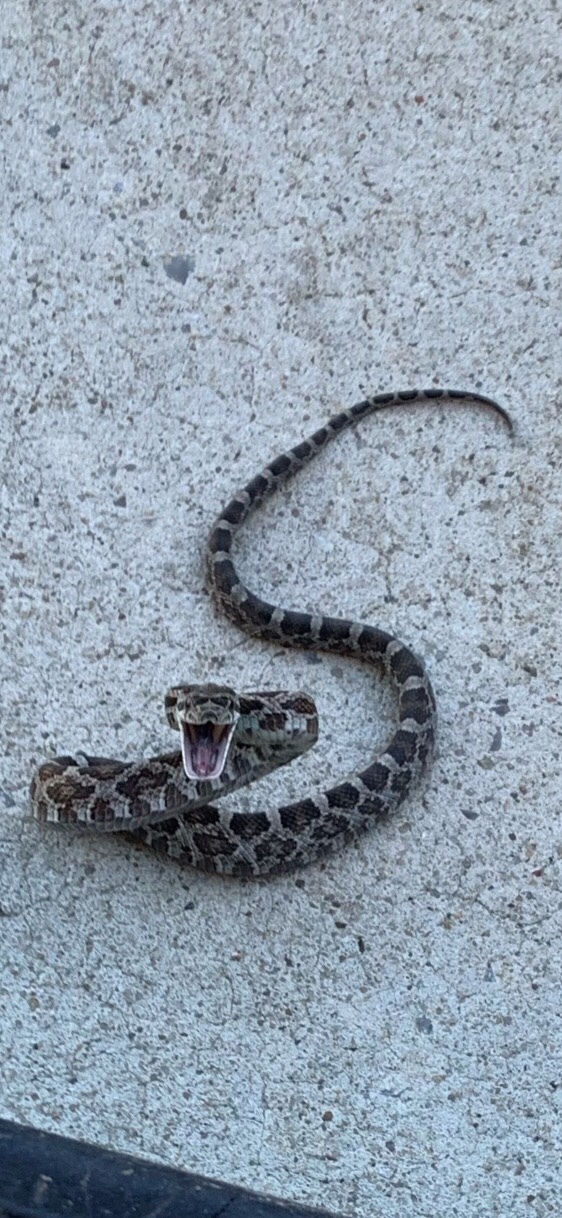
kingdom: Animalia
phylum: Chordata
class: Squamata
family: Colubridae
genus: Pantherophis
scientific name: Pantherophis obsoletus
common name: Black rat snake
